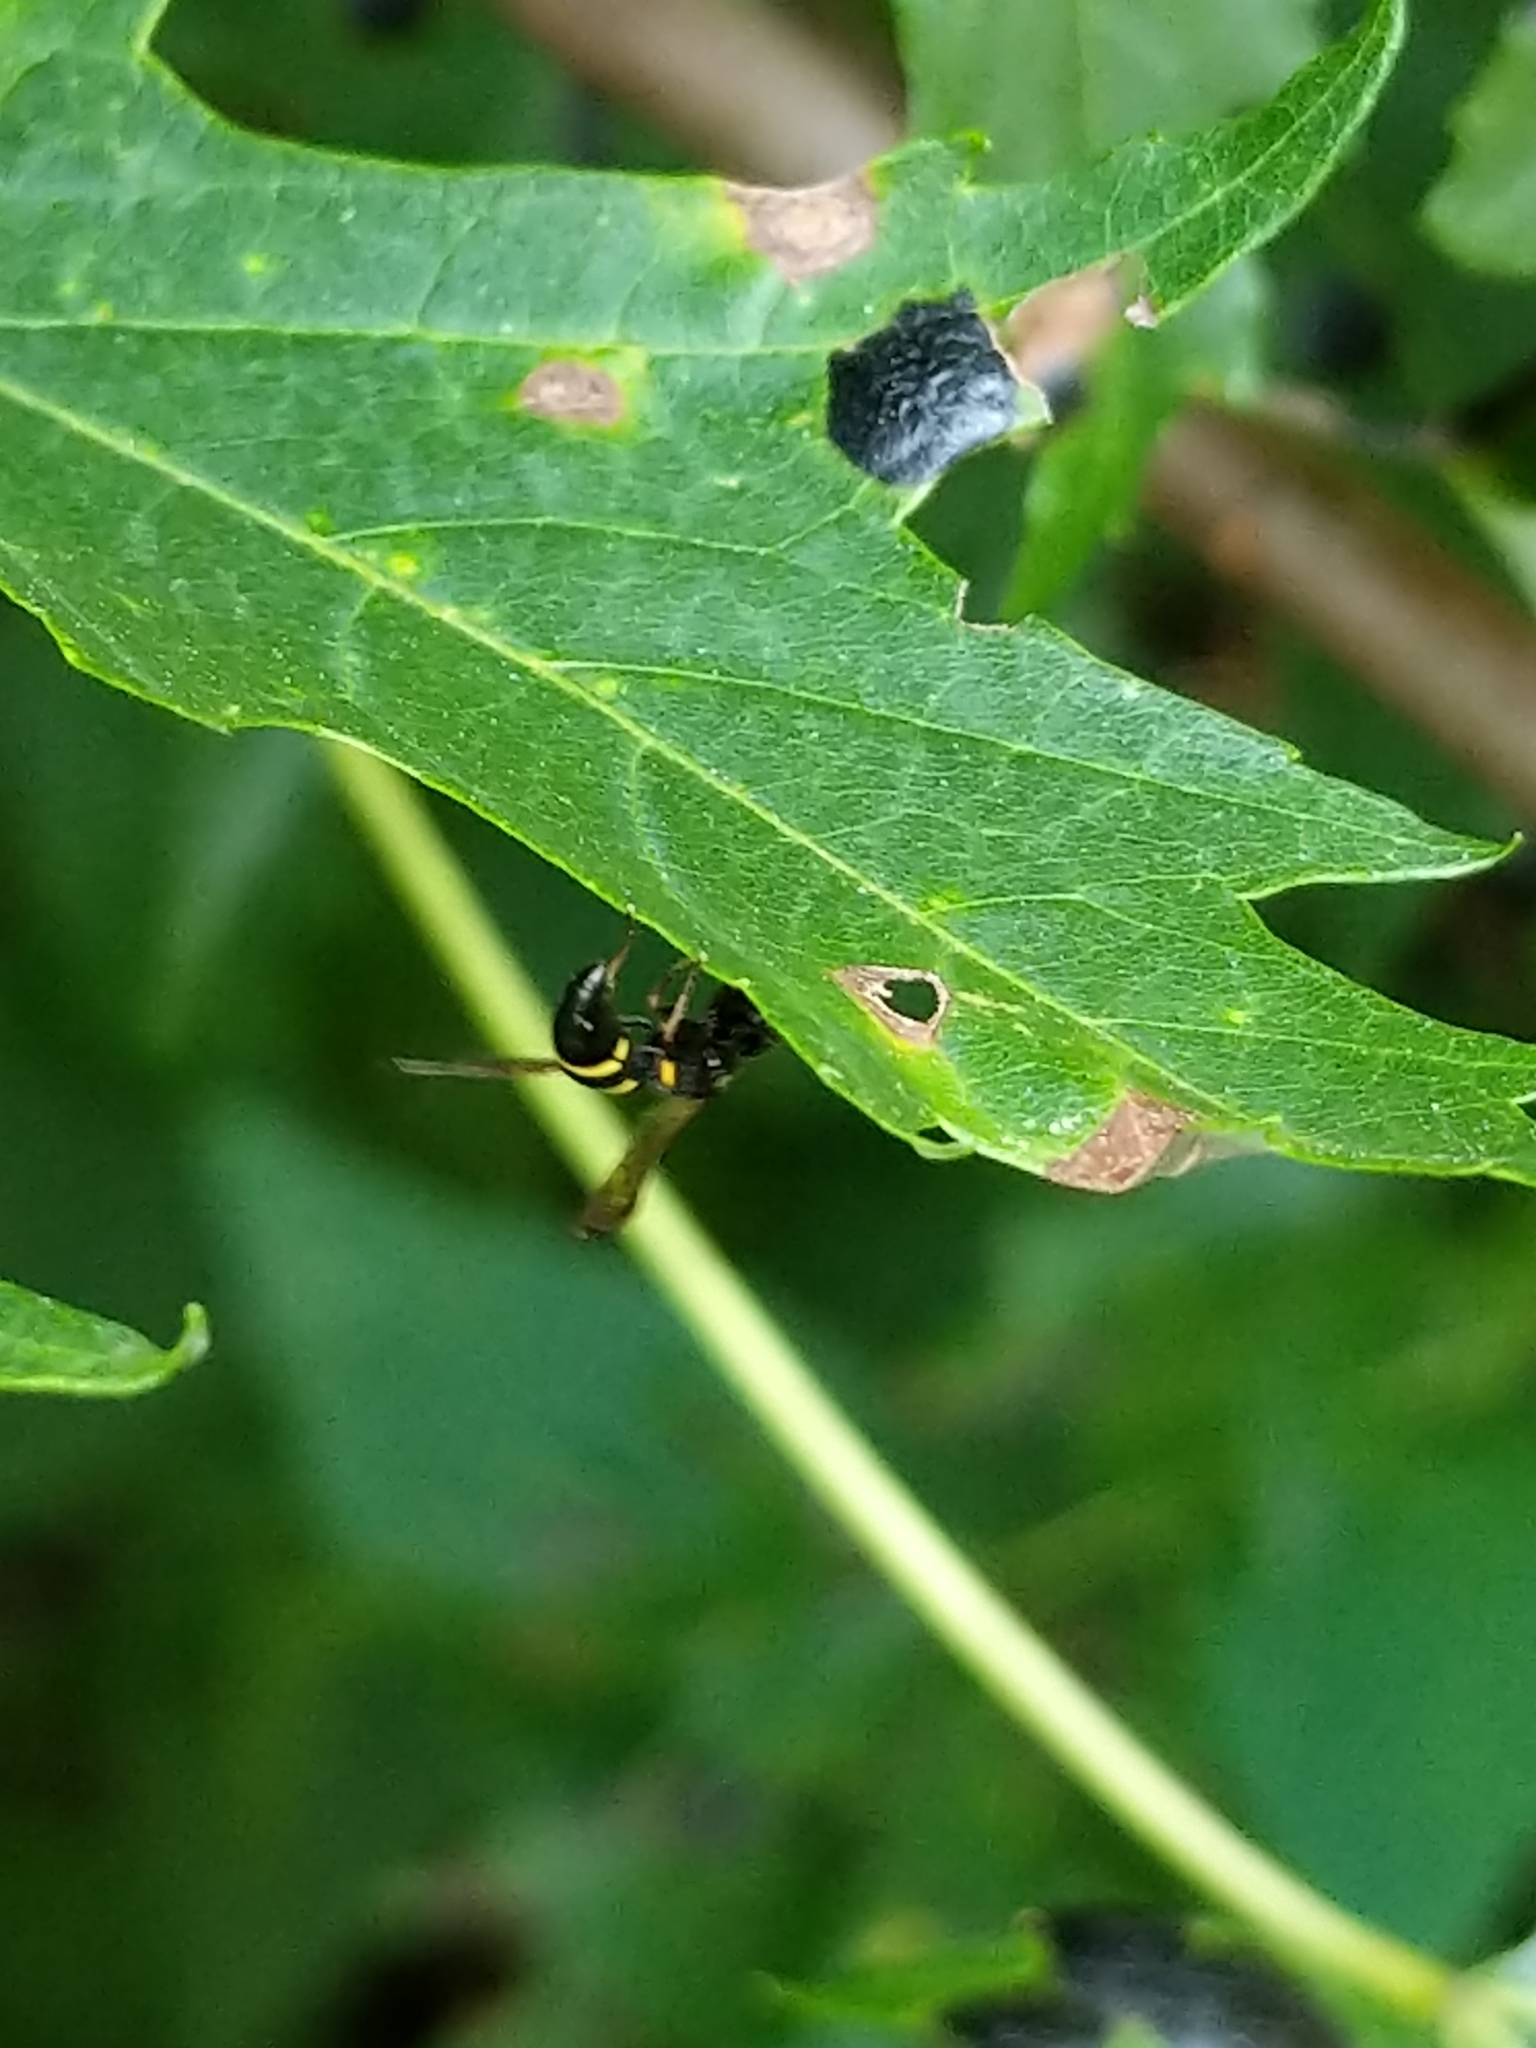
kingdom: Animalia
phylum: Arthropoda
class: Insecta
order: Hymenoptera
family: Eumenidae
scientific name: Eumenidae
